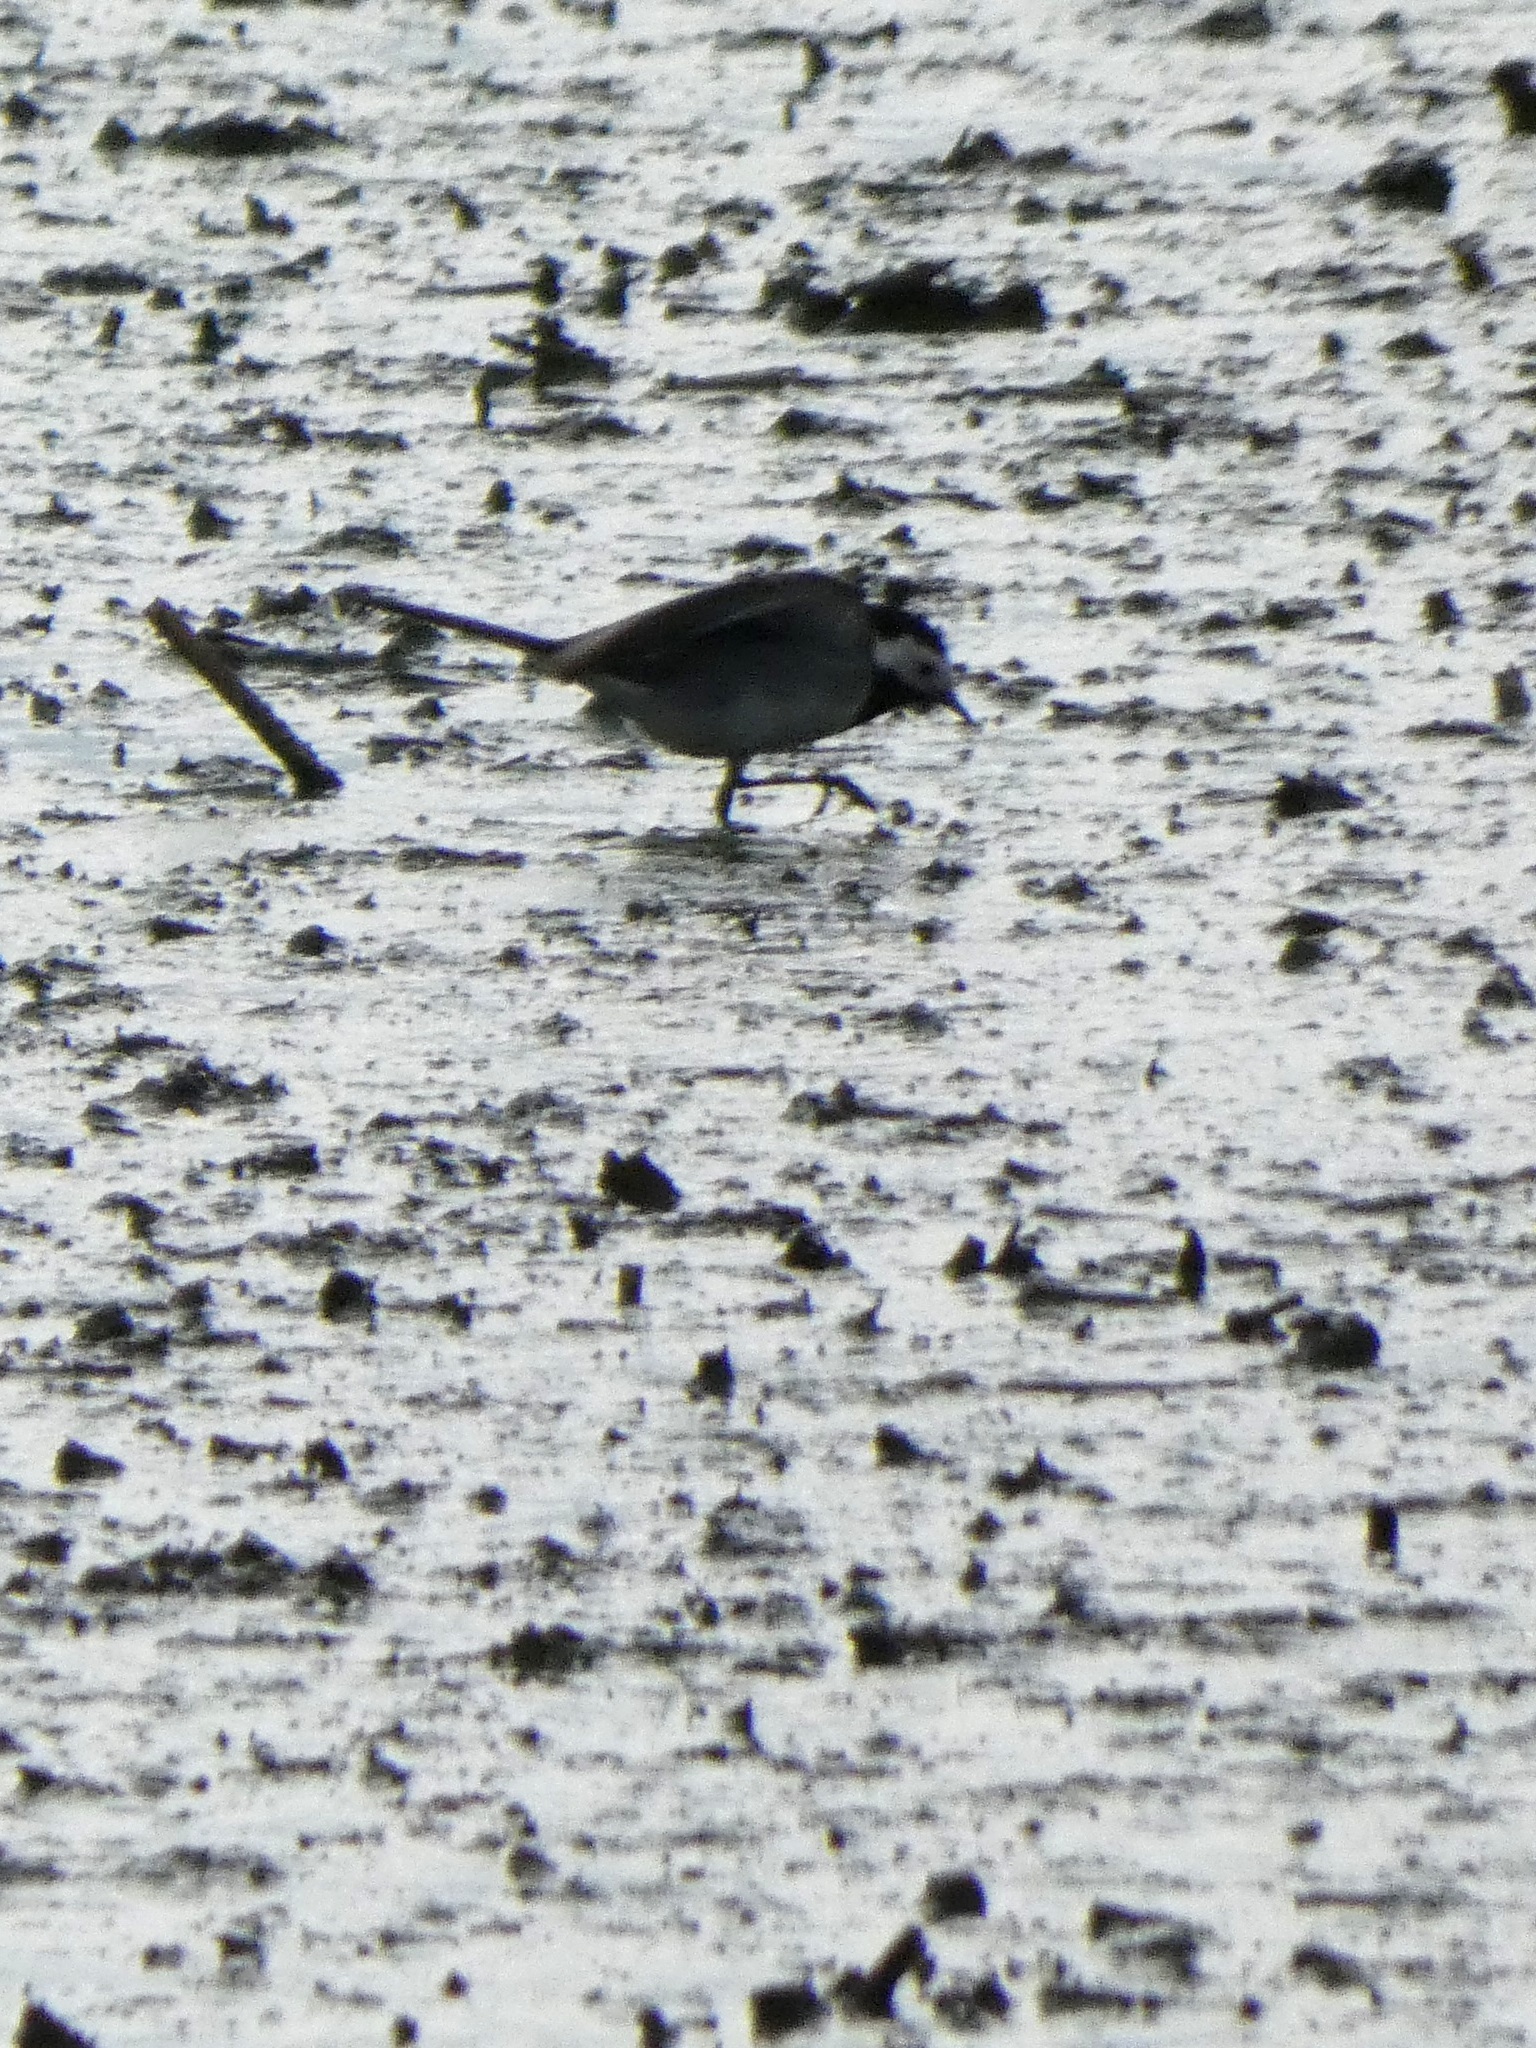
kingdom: Animalia
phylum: Chordata
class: Aves
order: Passeriformes
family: Motacillidae
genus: Motacilla
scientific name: Motacilla alba
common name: White wagtail
